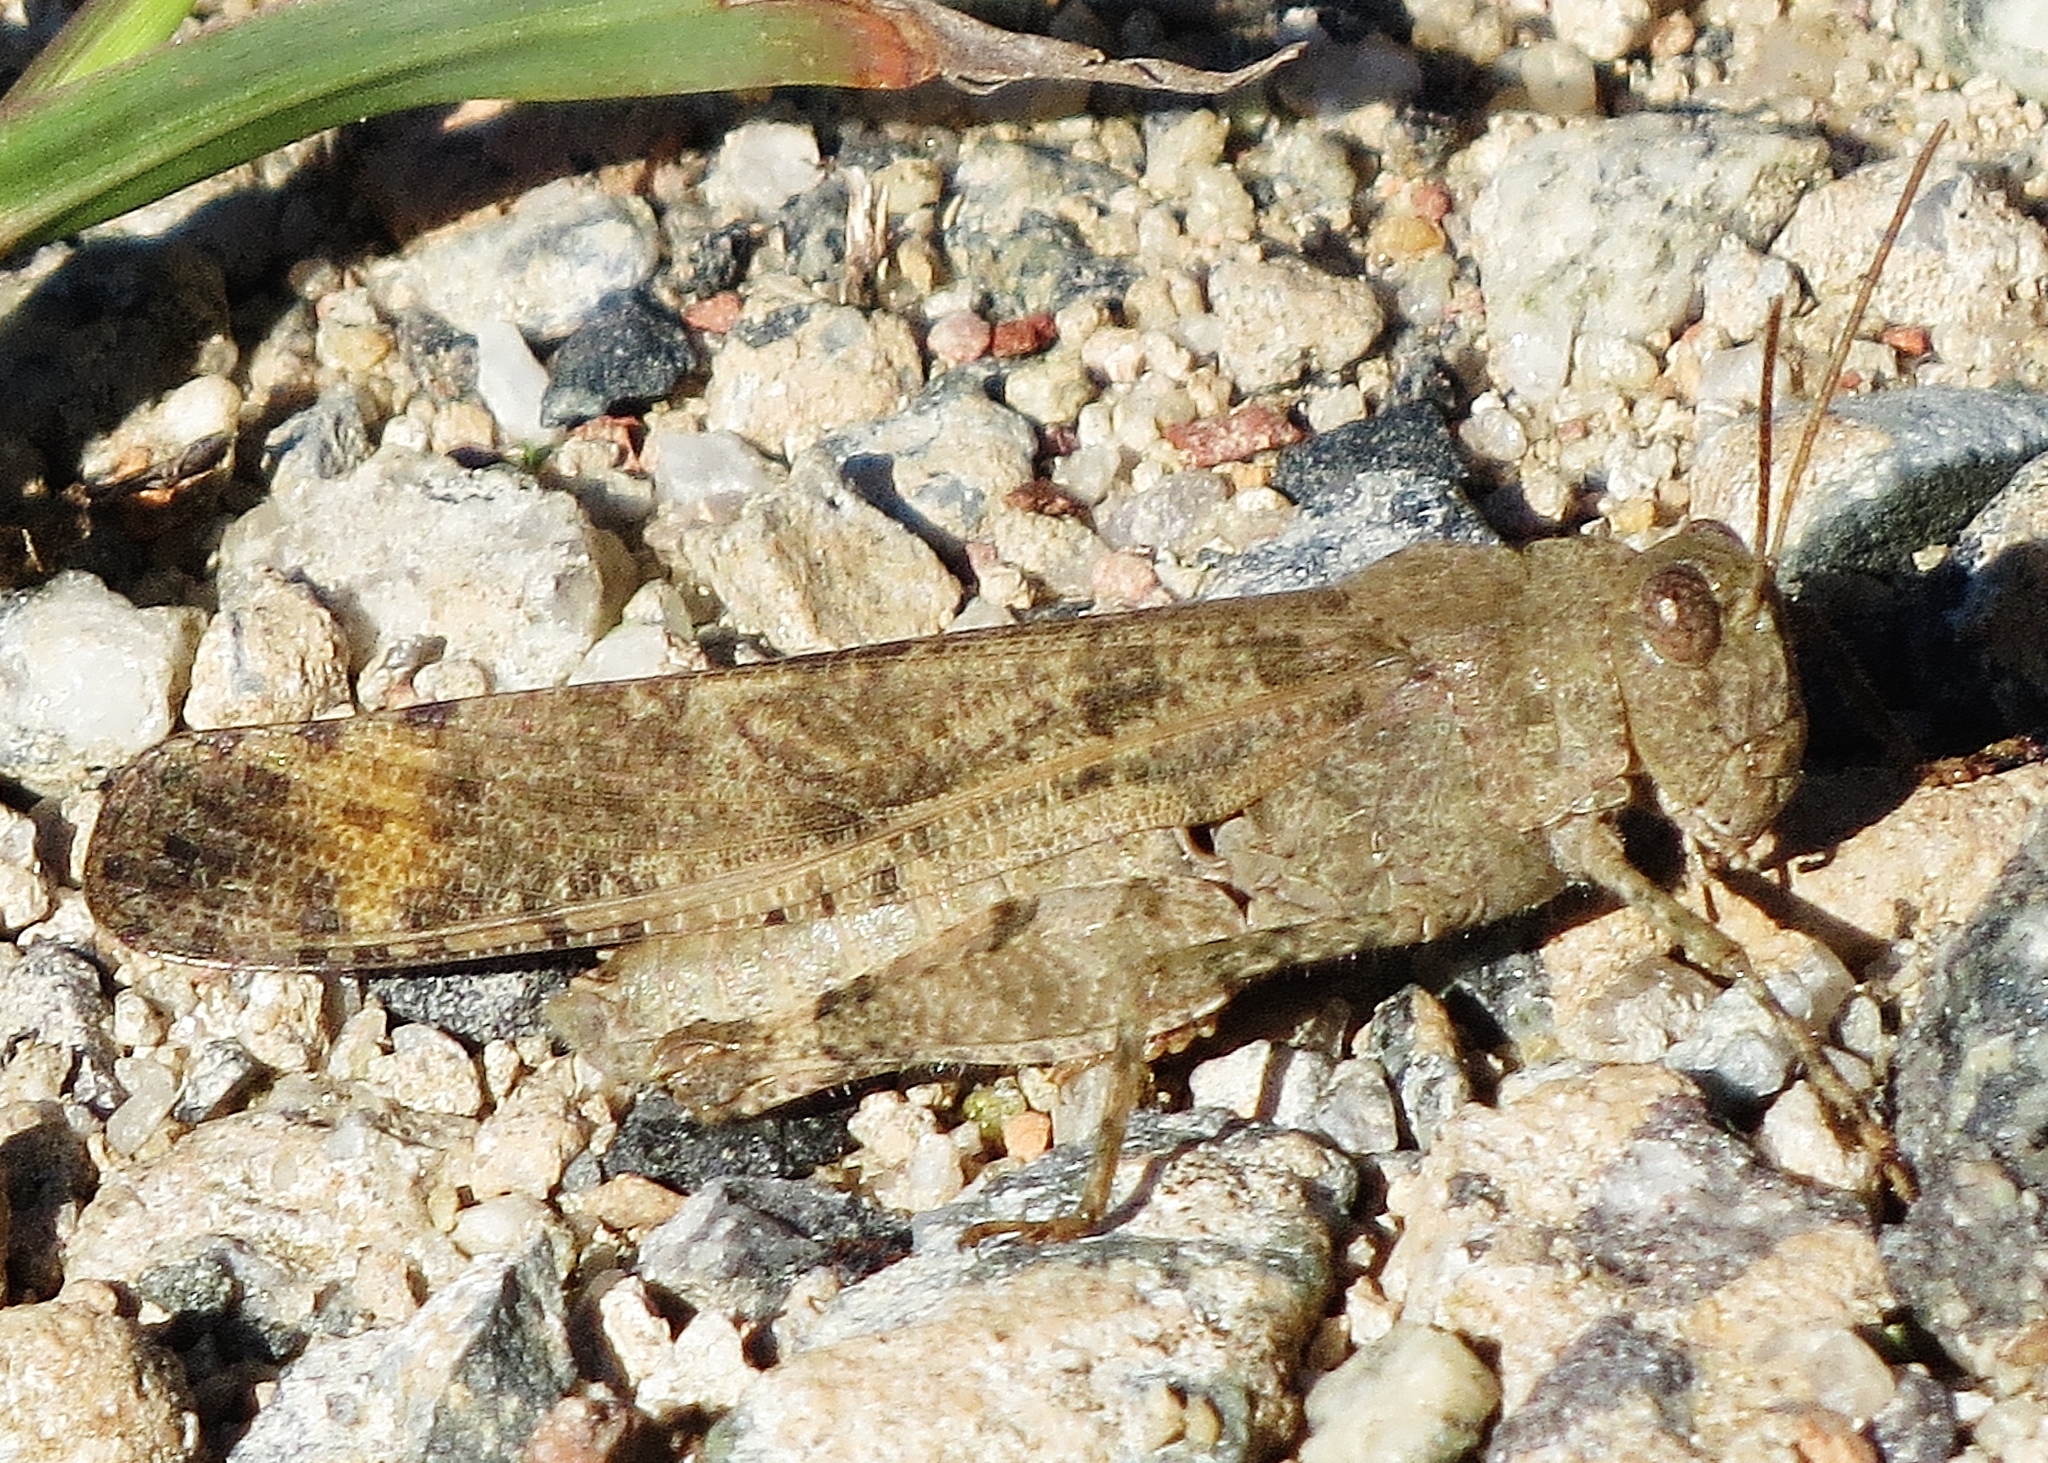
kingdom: Animalia
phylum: Arthropoda
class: Insecta
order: Orthoptera
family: Acrididae
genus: Dissosteira
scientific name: Dissosteira carolina
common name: Carolina grasshopper
